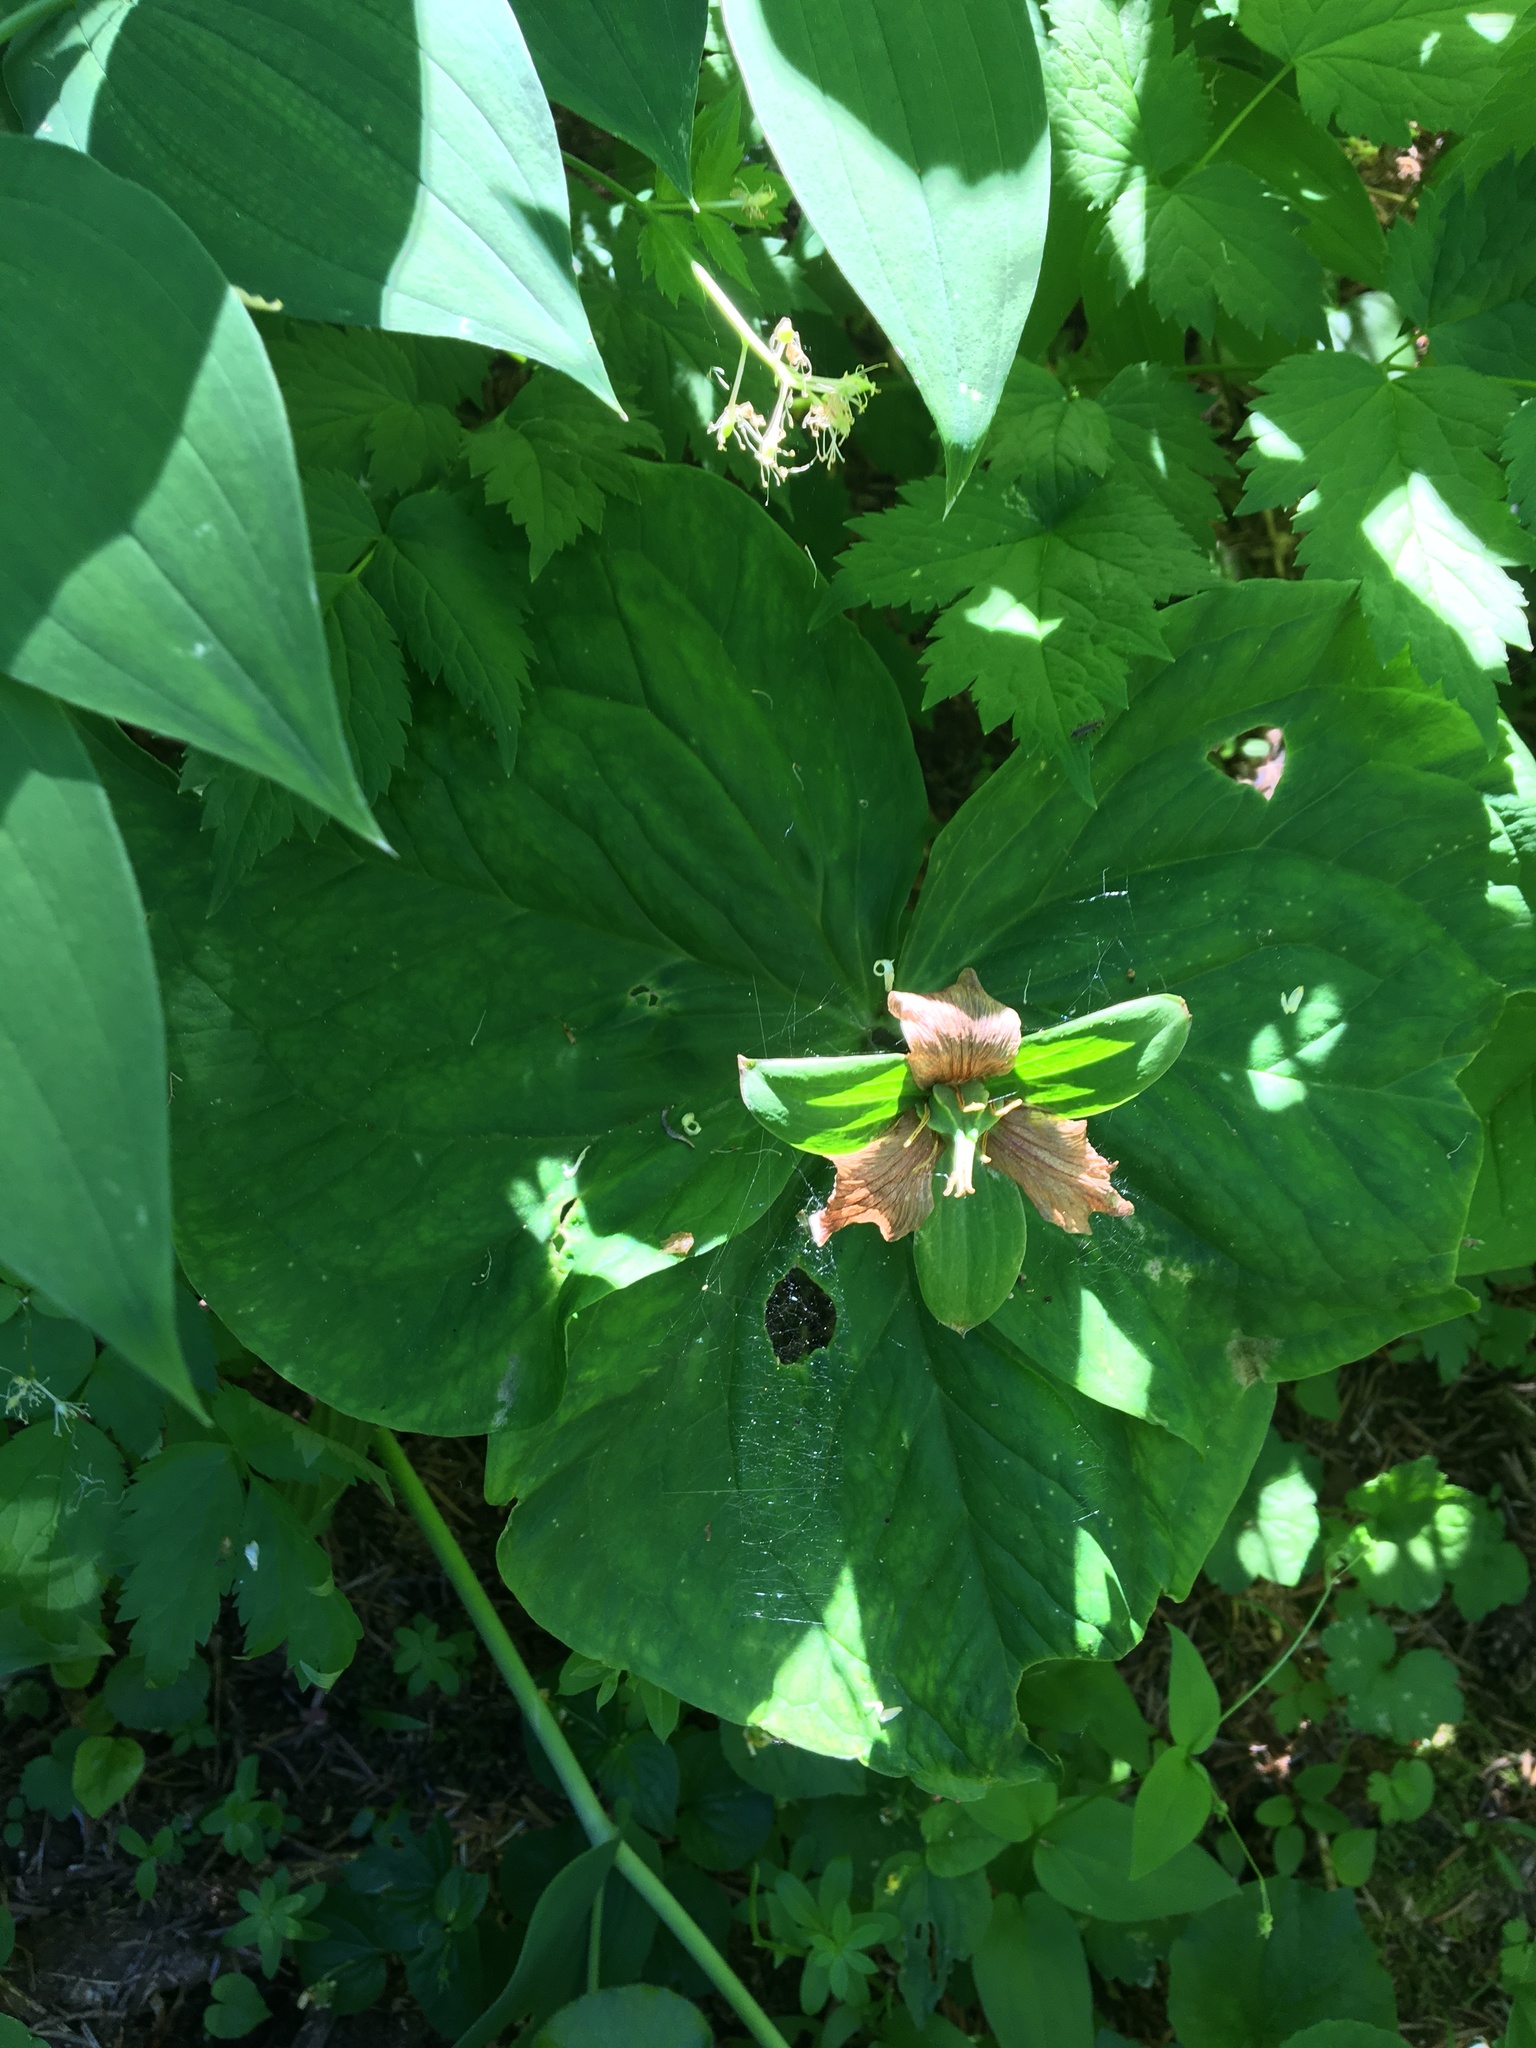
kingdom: Plantae
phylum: Tracheophyta
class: Liliopsida
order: Liliales
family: Melanthiaceae
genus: Trillium
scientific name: Trillium ovatum
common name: Pacific trillium
